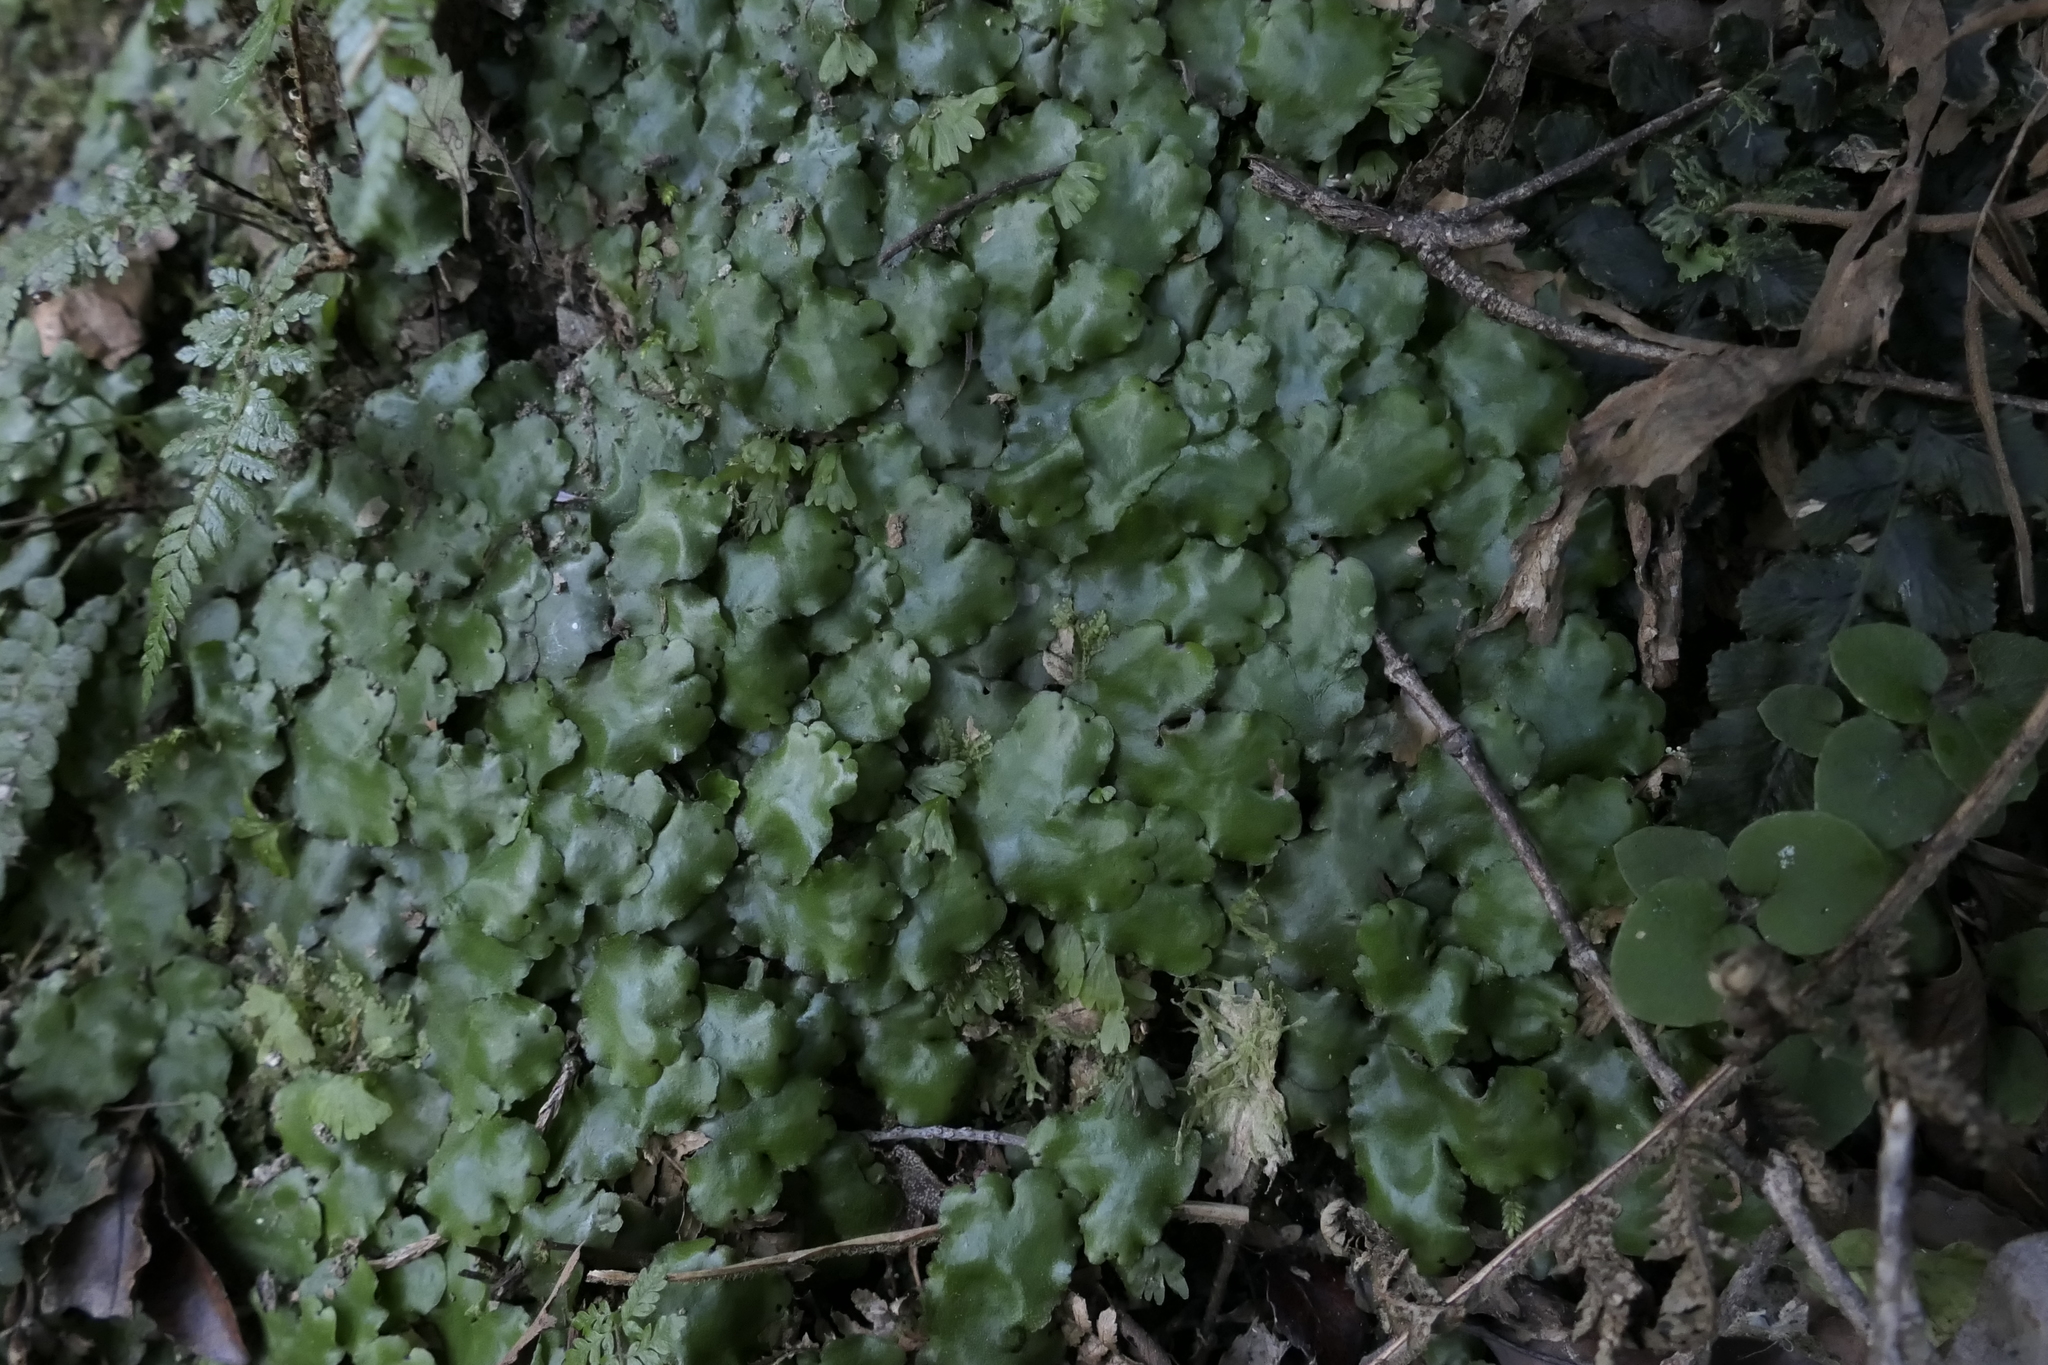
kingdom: Plantae
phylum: Marchantiophyta
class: Marchantiopsida
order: Marchantiales
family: Monocleaceae
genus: Monoclea
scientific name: Monoclea forsteri
